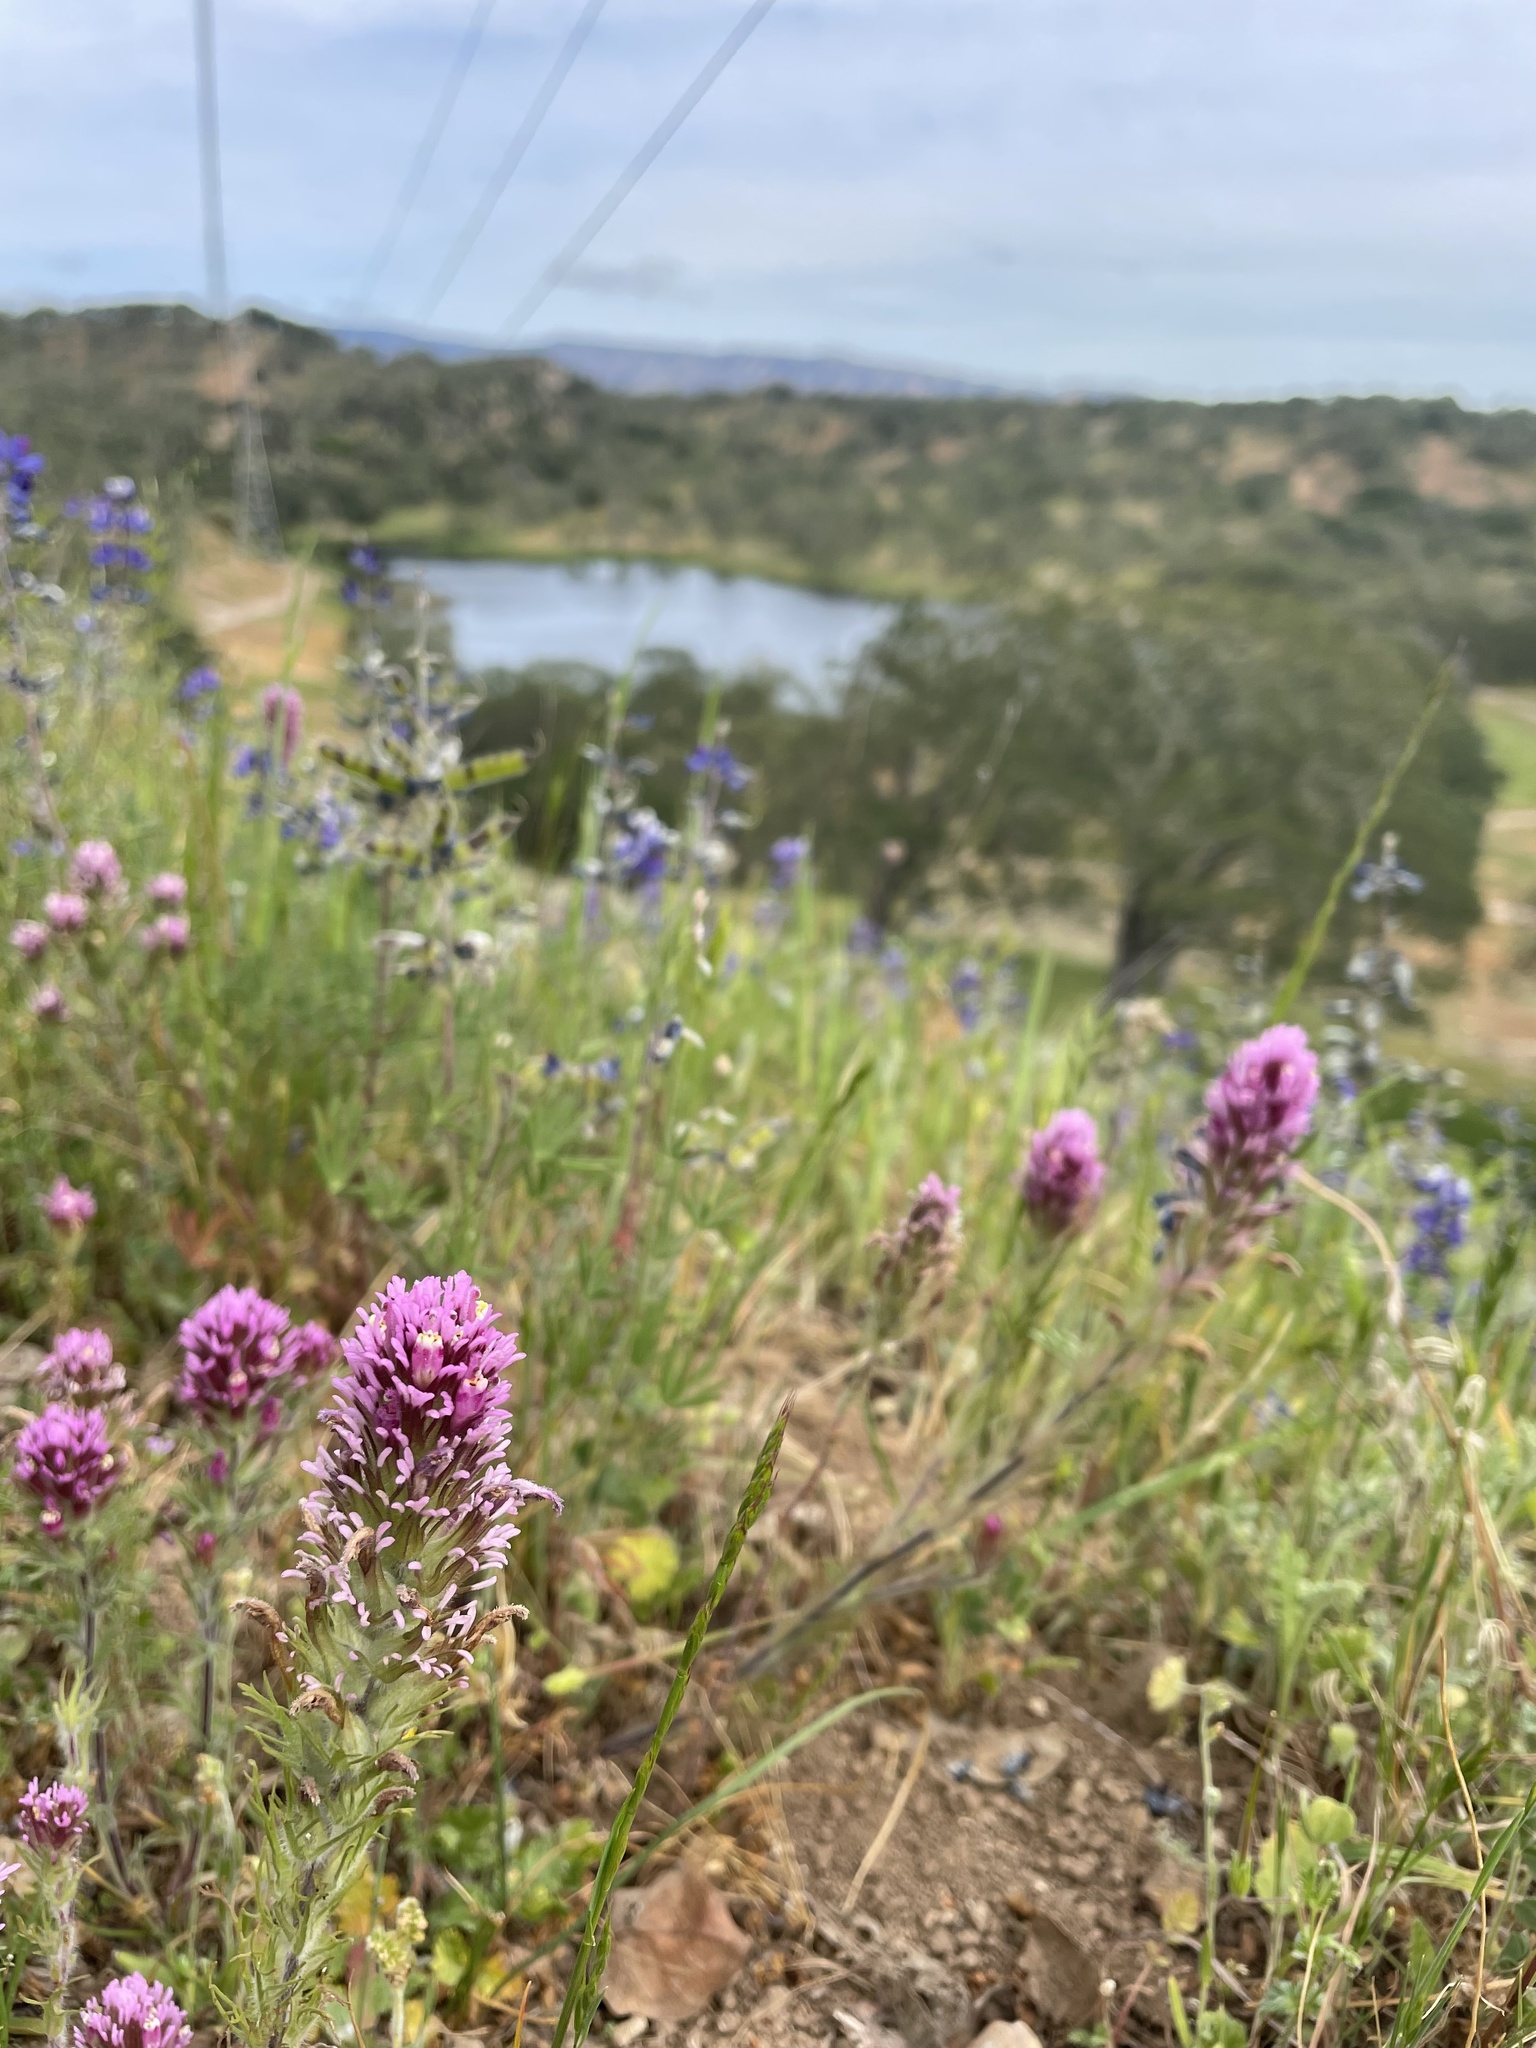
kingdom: Plantae
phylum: Tracheophyta
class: Magnoliopsida
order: Lamiales
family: Orobanchaceae
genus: Castilleja
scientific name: Castilleja exserta
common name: Purple owl-clover
